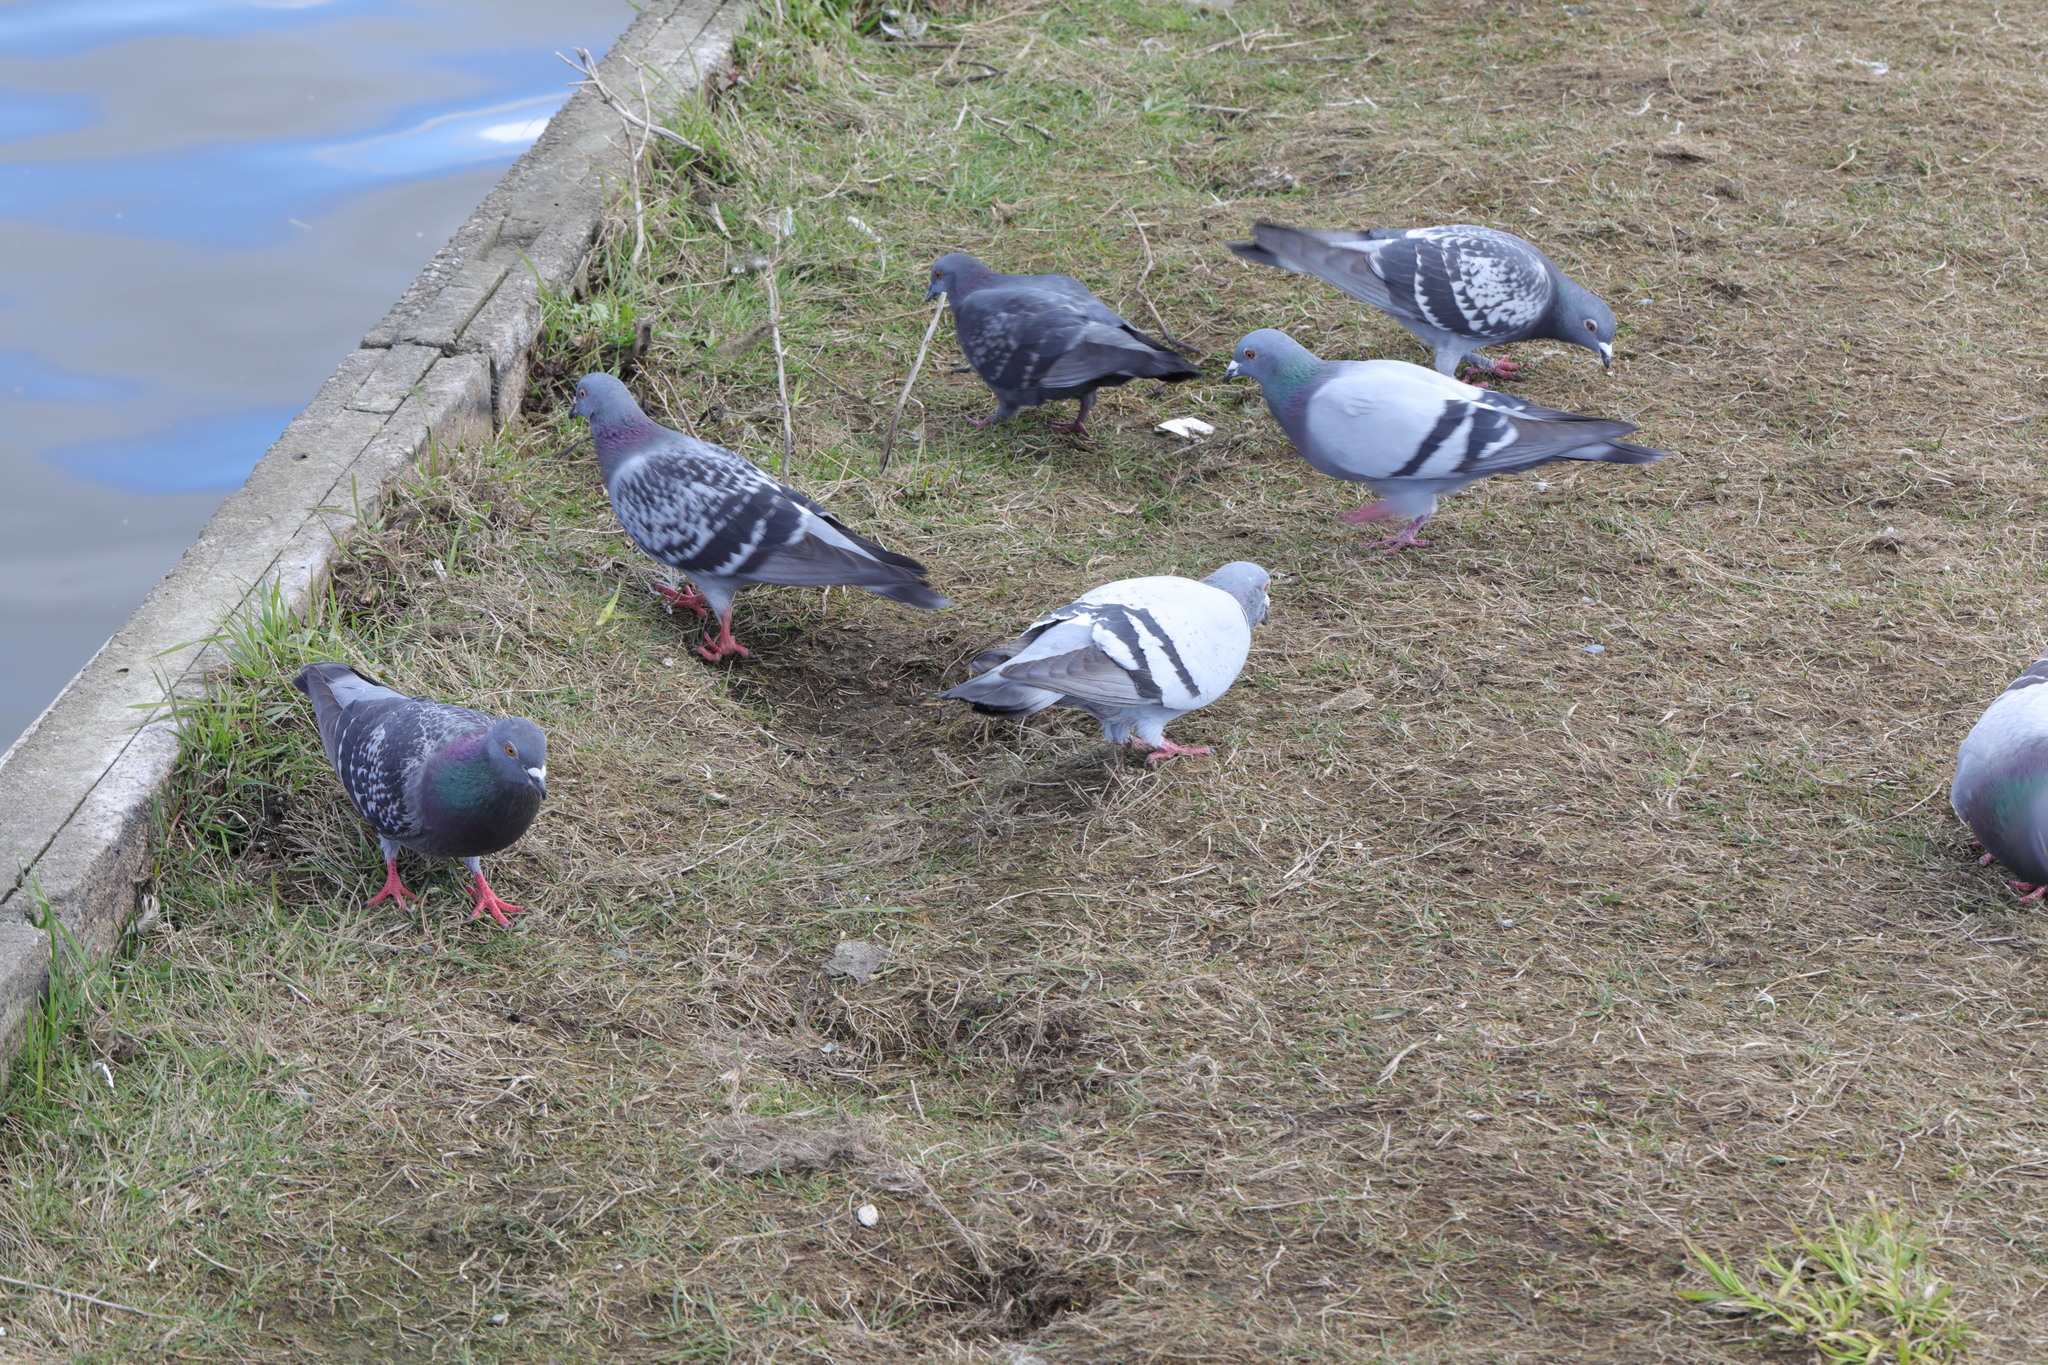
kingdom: Animalia
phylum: Chordata
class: Aves
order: Columbiformes
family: Columbidae
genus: Columba
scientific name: Columba livia
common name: Rock pigeon
